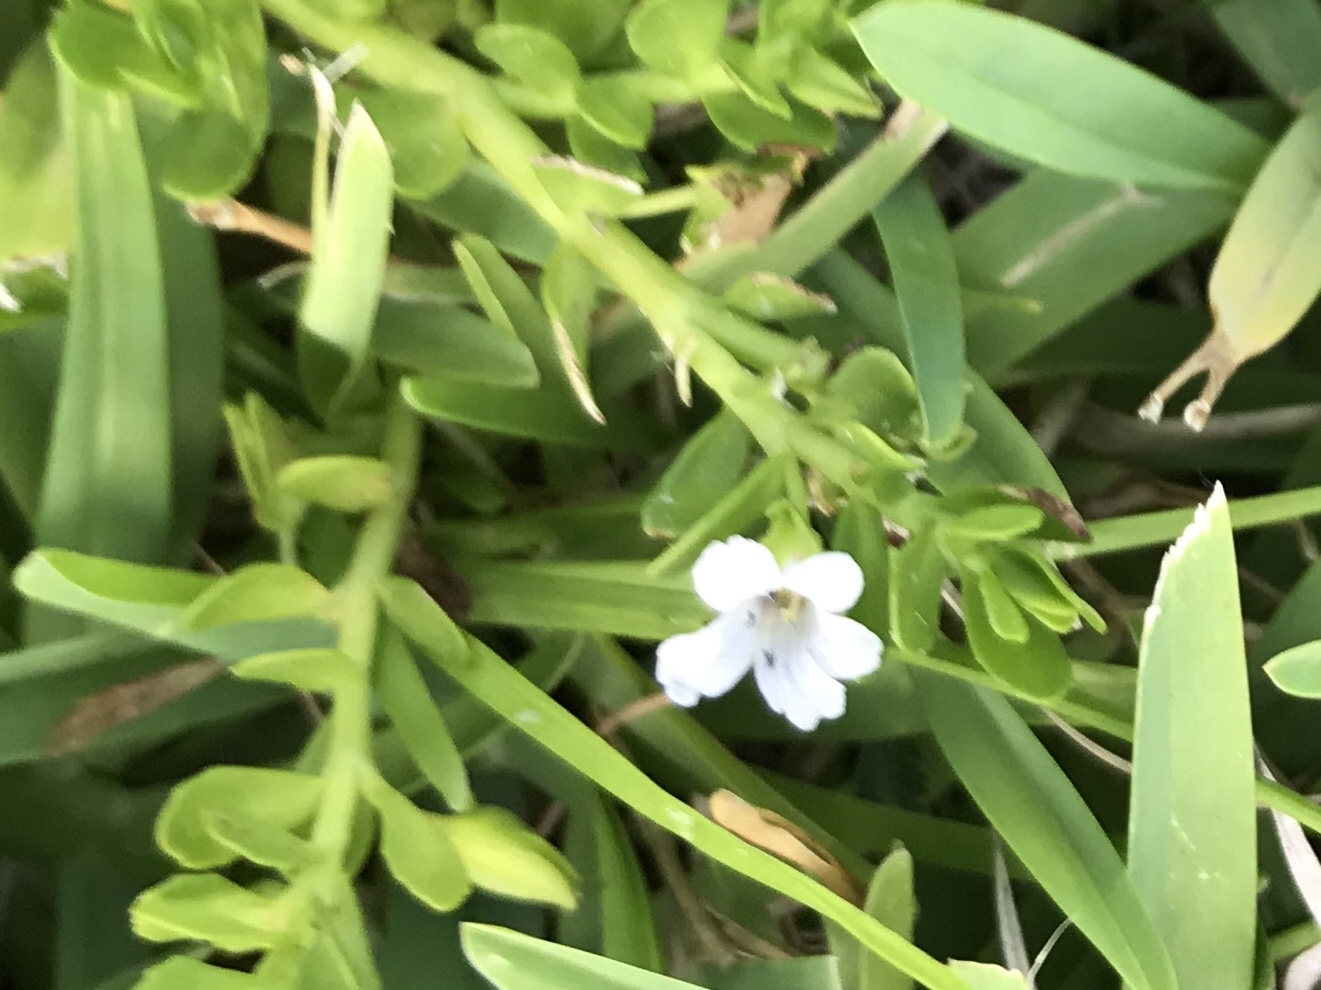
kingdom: Plantae
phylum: Tracheophyta
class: Magnoliopsida
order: Lamiales
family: Plantaginaceae
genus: Bacopa
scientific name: Bacopa monnieri
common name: Indian-pennywort
